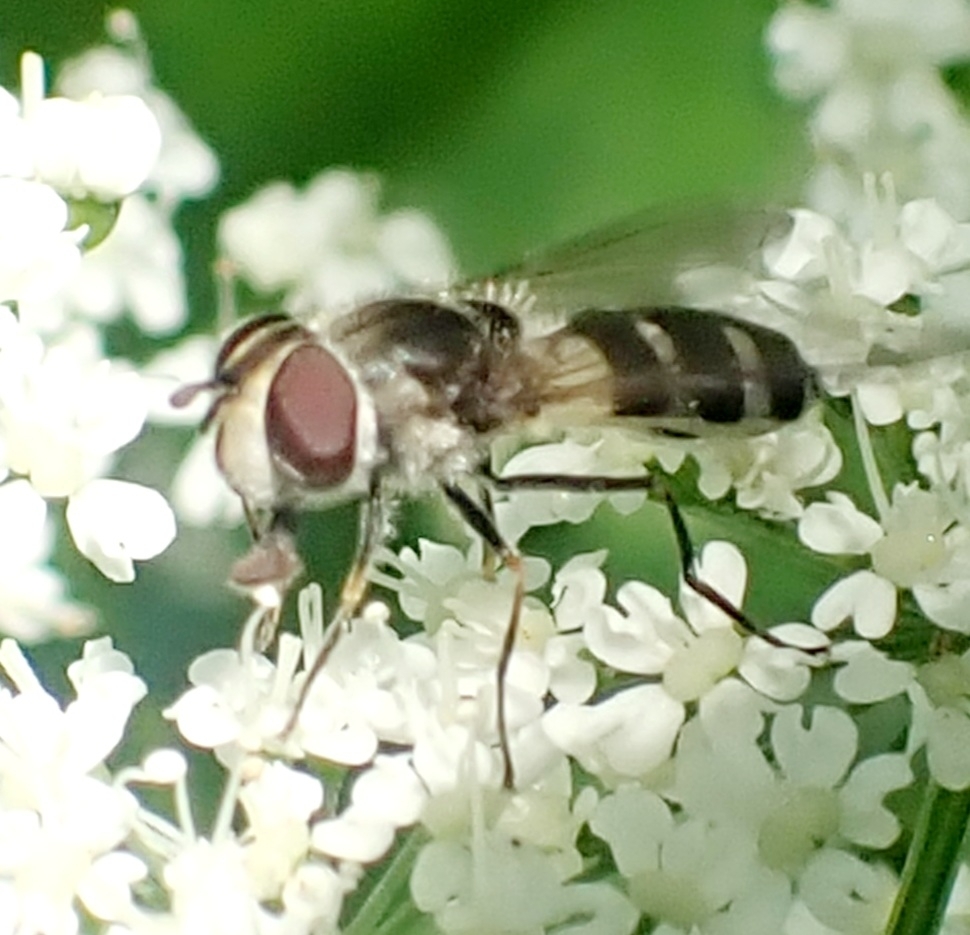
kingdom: Animalia
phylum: Arthropoda
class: Insecta
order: Diptera
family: Syrphidae
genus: Leucozona
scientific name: Leucozona laternaria
